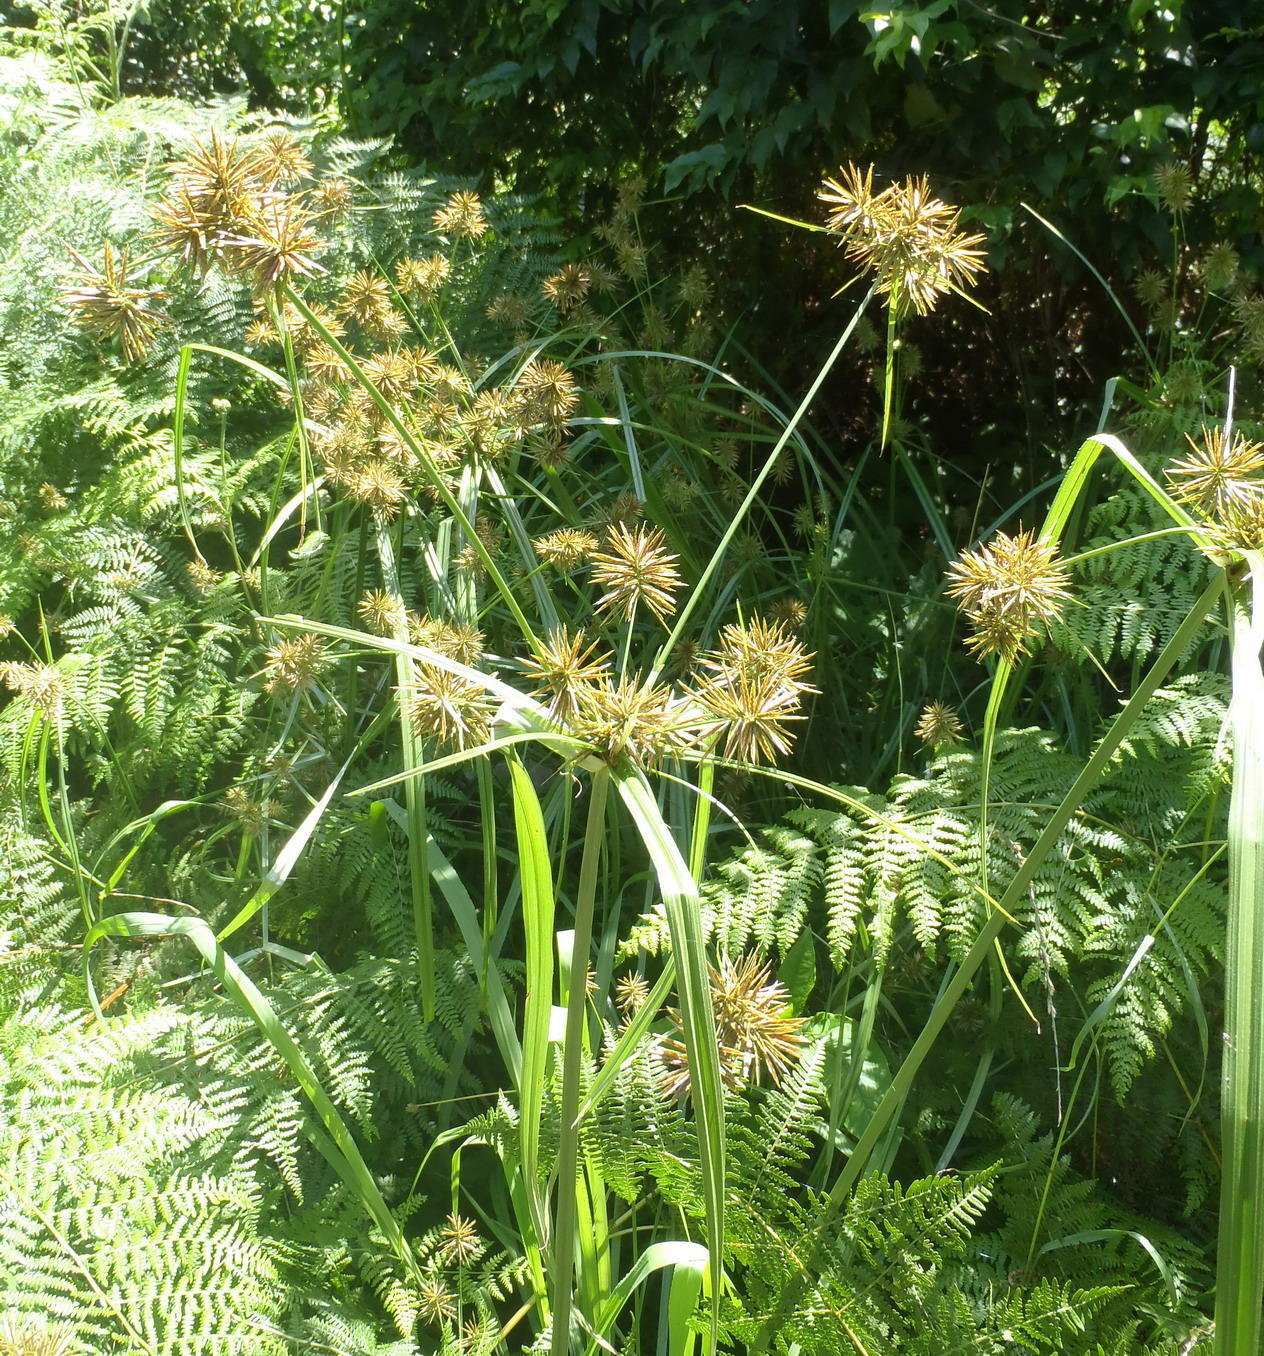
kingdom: Plantae
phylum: Tracheophyta
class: Liliopsida
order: Poales
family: Cyperaceae
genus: Cyperus
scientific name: Cyperus congestus
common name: Dense flat sedge
